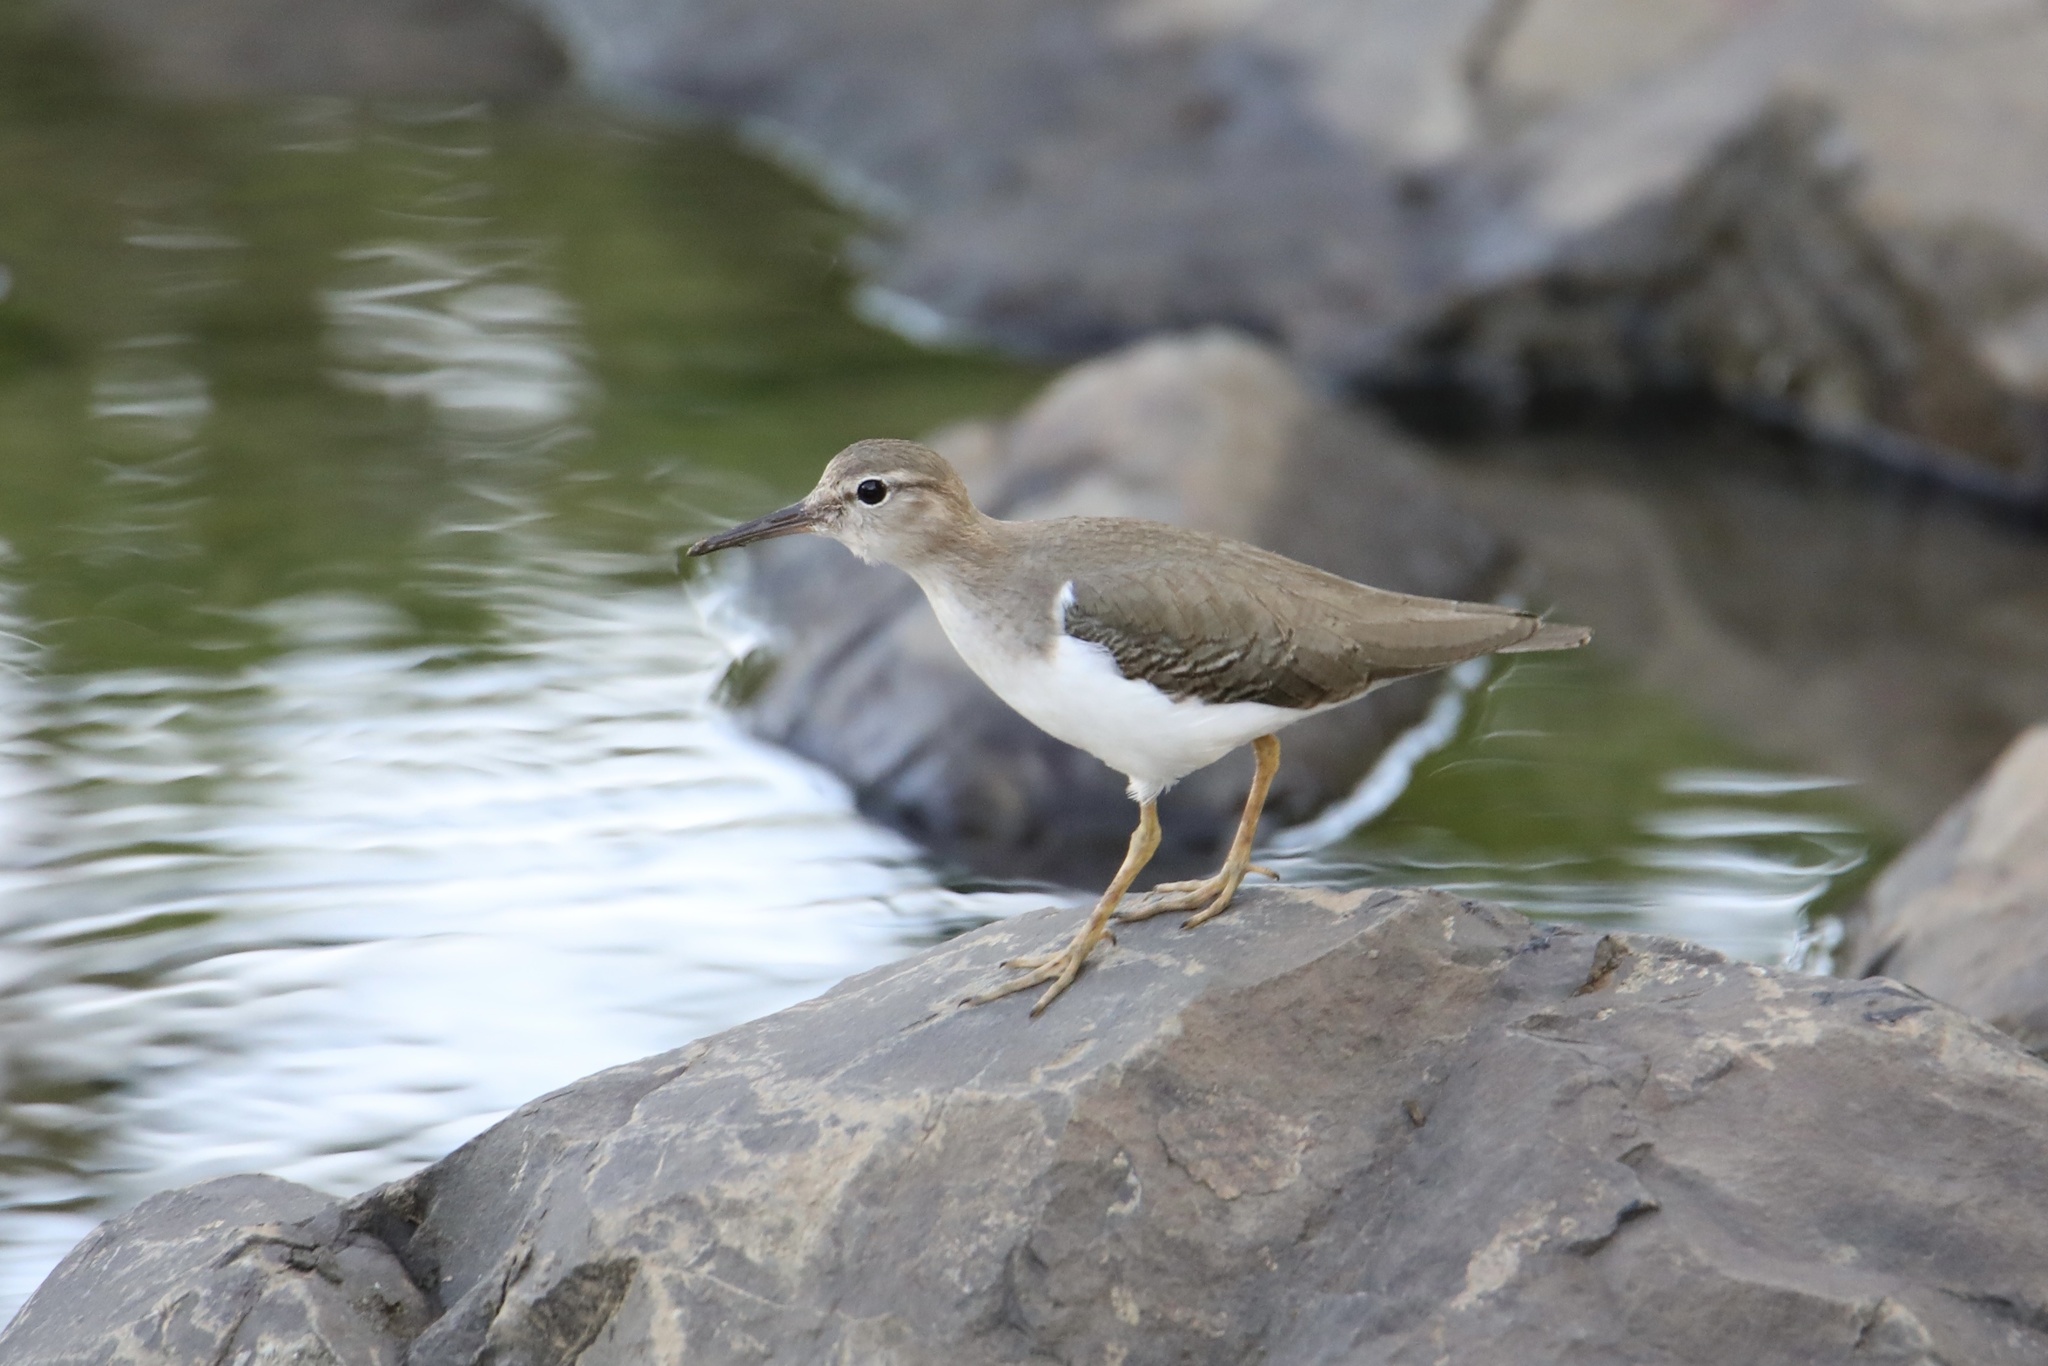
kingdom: Animalia
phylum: Chordata
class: Aves
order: Charadriiformes
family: Scolopacidae
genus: Actitis
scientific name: Actitis macularius
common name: Spotted sandpiper
